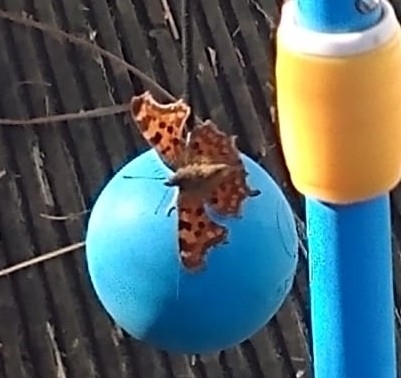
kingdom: Animalia
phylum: Arthropoda
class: Insecta
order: Lepidoptera
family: Nymphalidae
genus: Polygonia
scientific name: Polygonia c-album
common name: Comma
